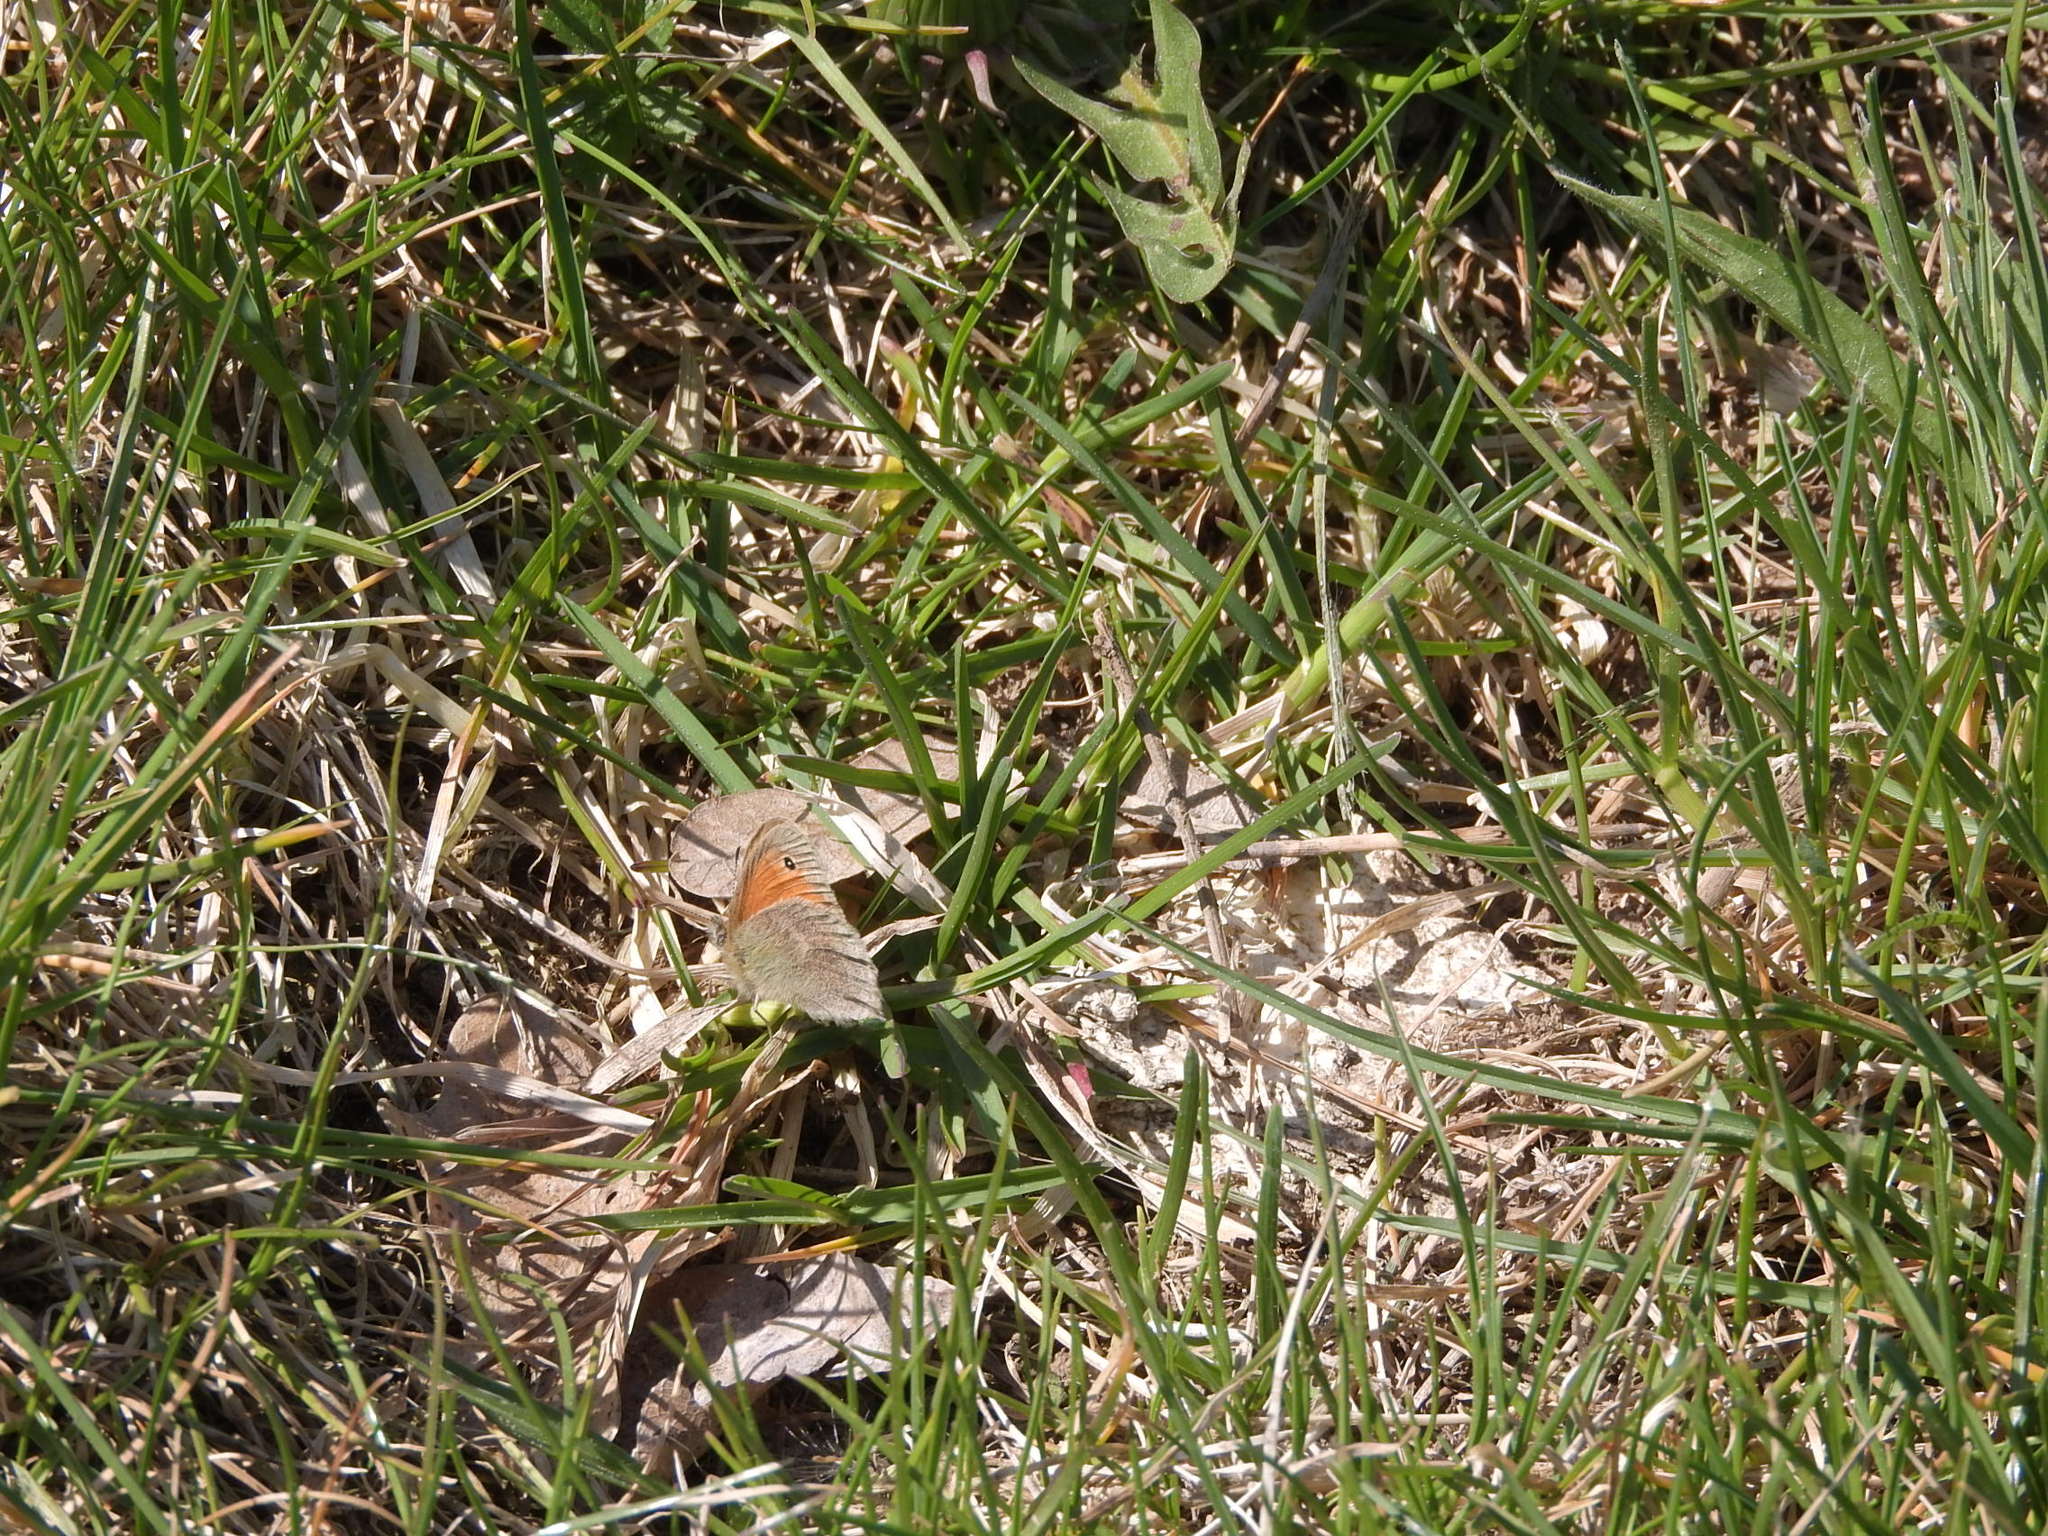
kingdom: Animalia
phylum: Arthropoda
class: Insecta
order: Lepidoptera
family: Nymphalidae
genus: Coenonympha
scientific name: Coenonympha pamphilus
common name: Small heath
